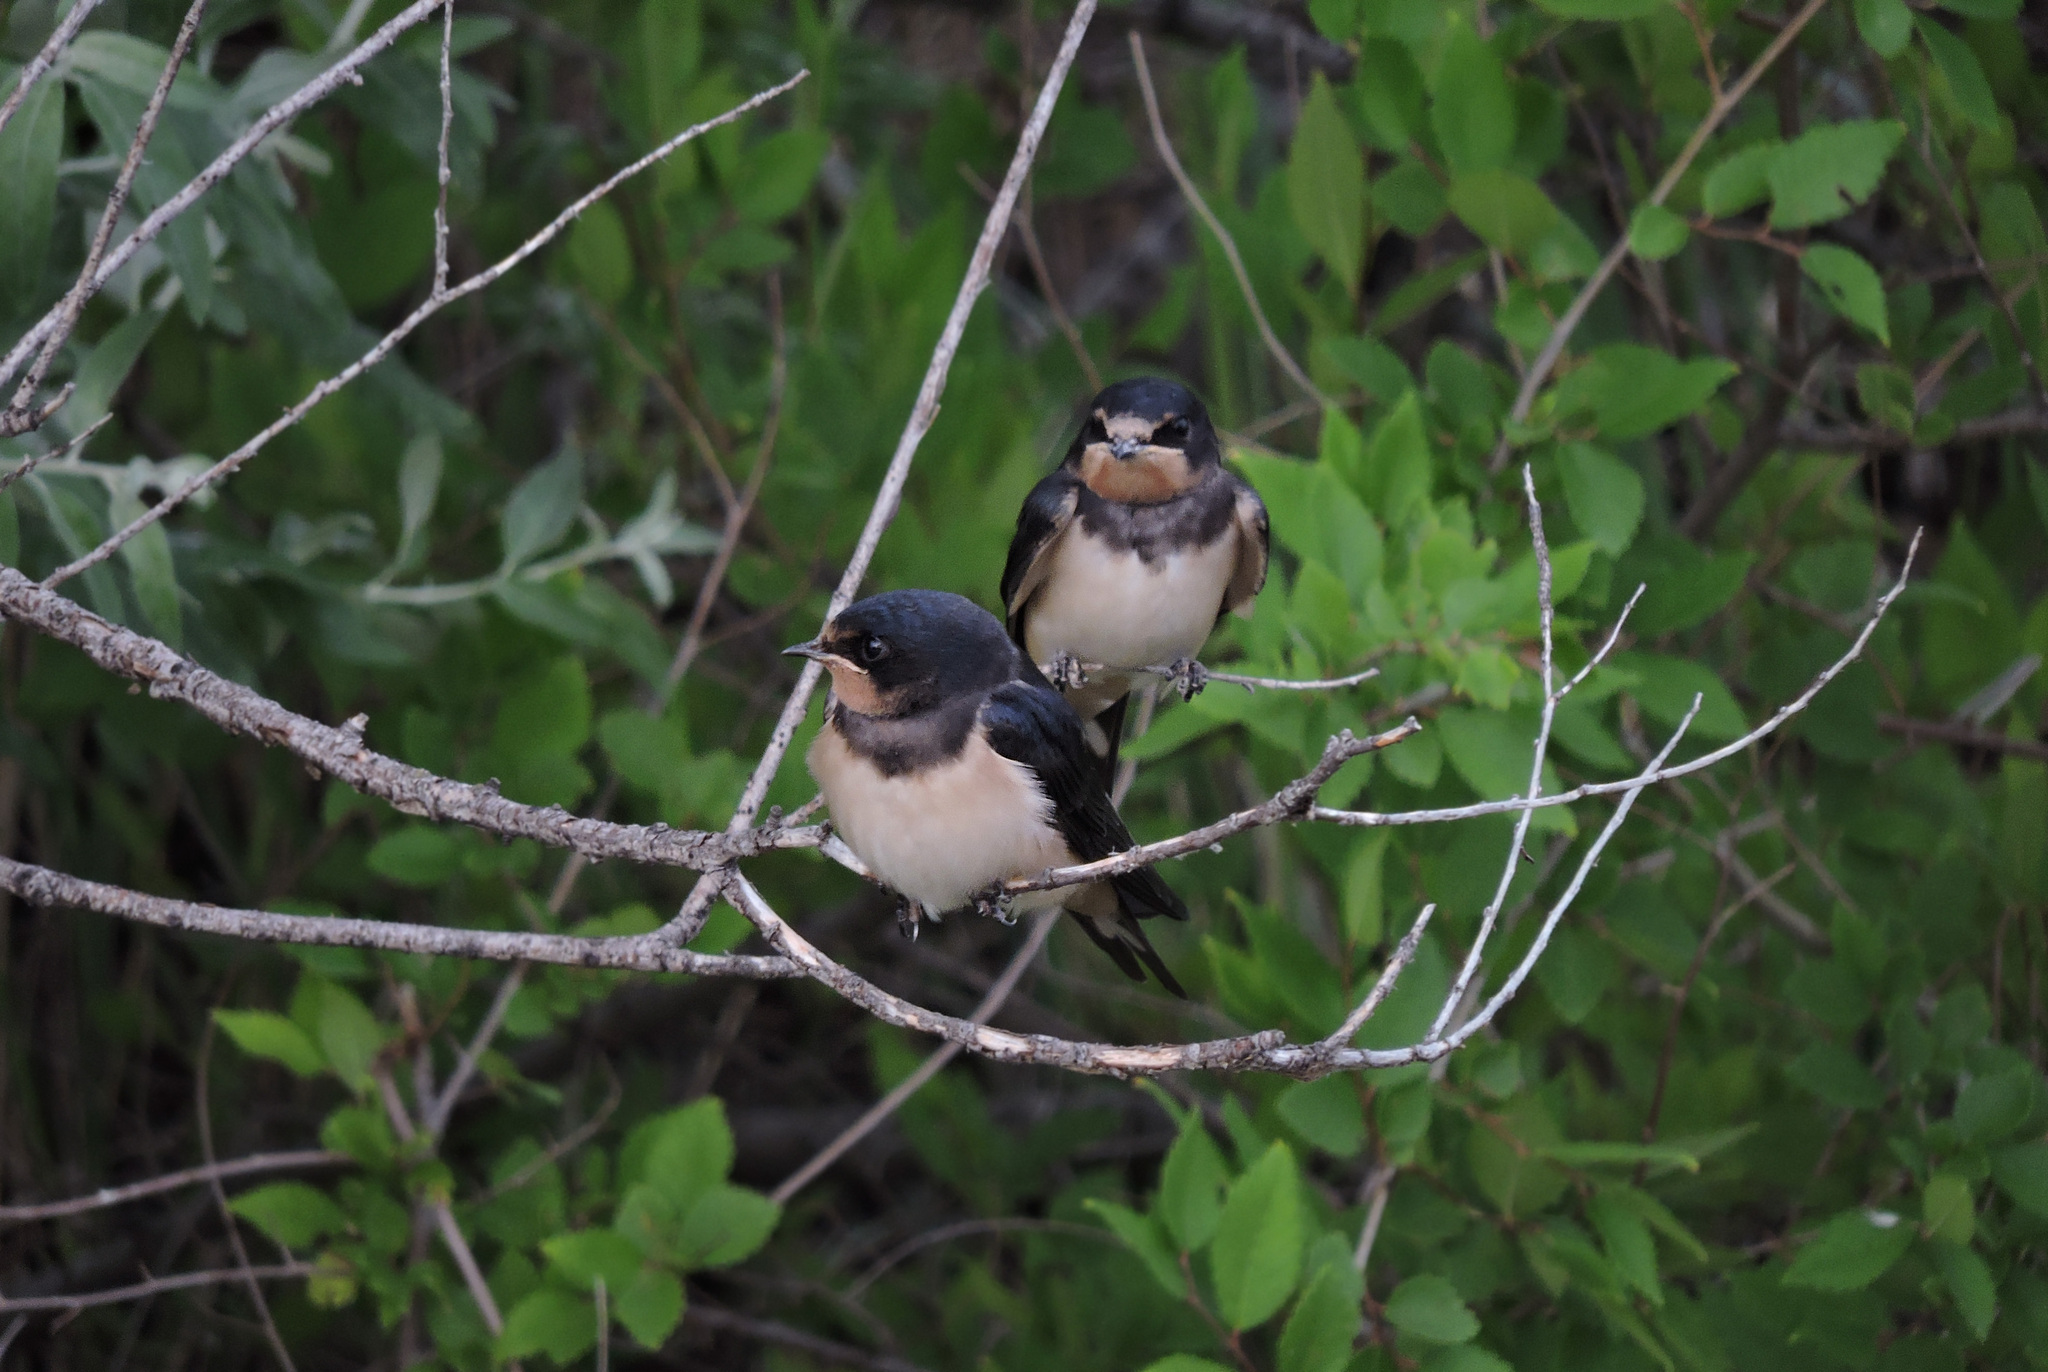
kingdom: Animalia
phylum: Chordata
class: Aves
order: Passeriformes
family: Hirundinidae
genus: Hirundo
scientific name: Hirundo rustica
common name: Barn swallow
